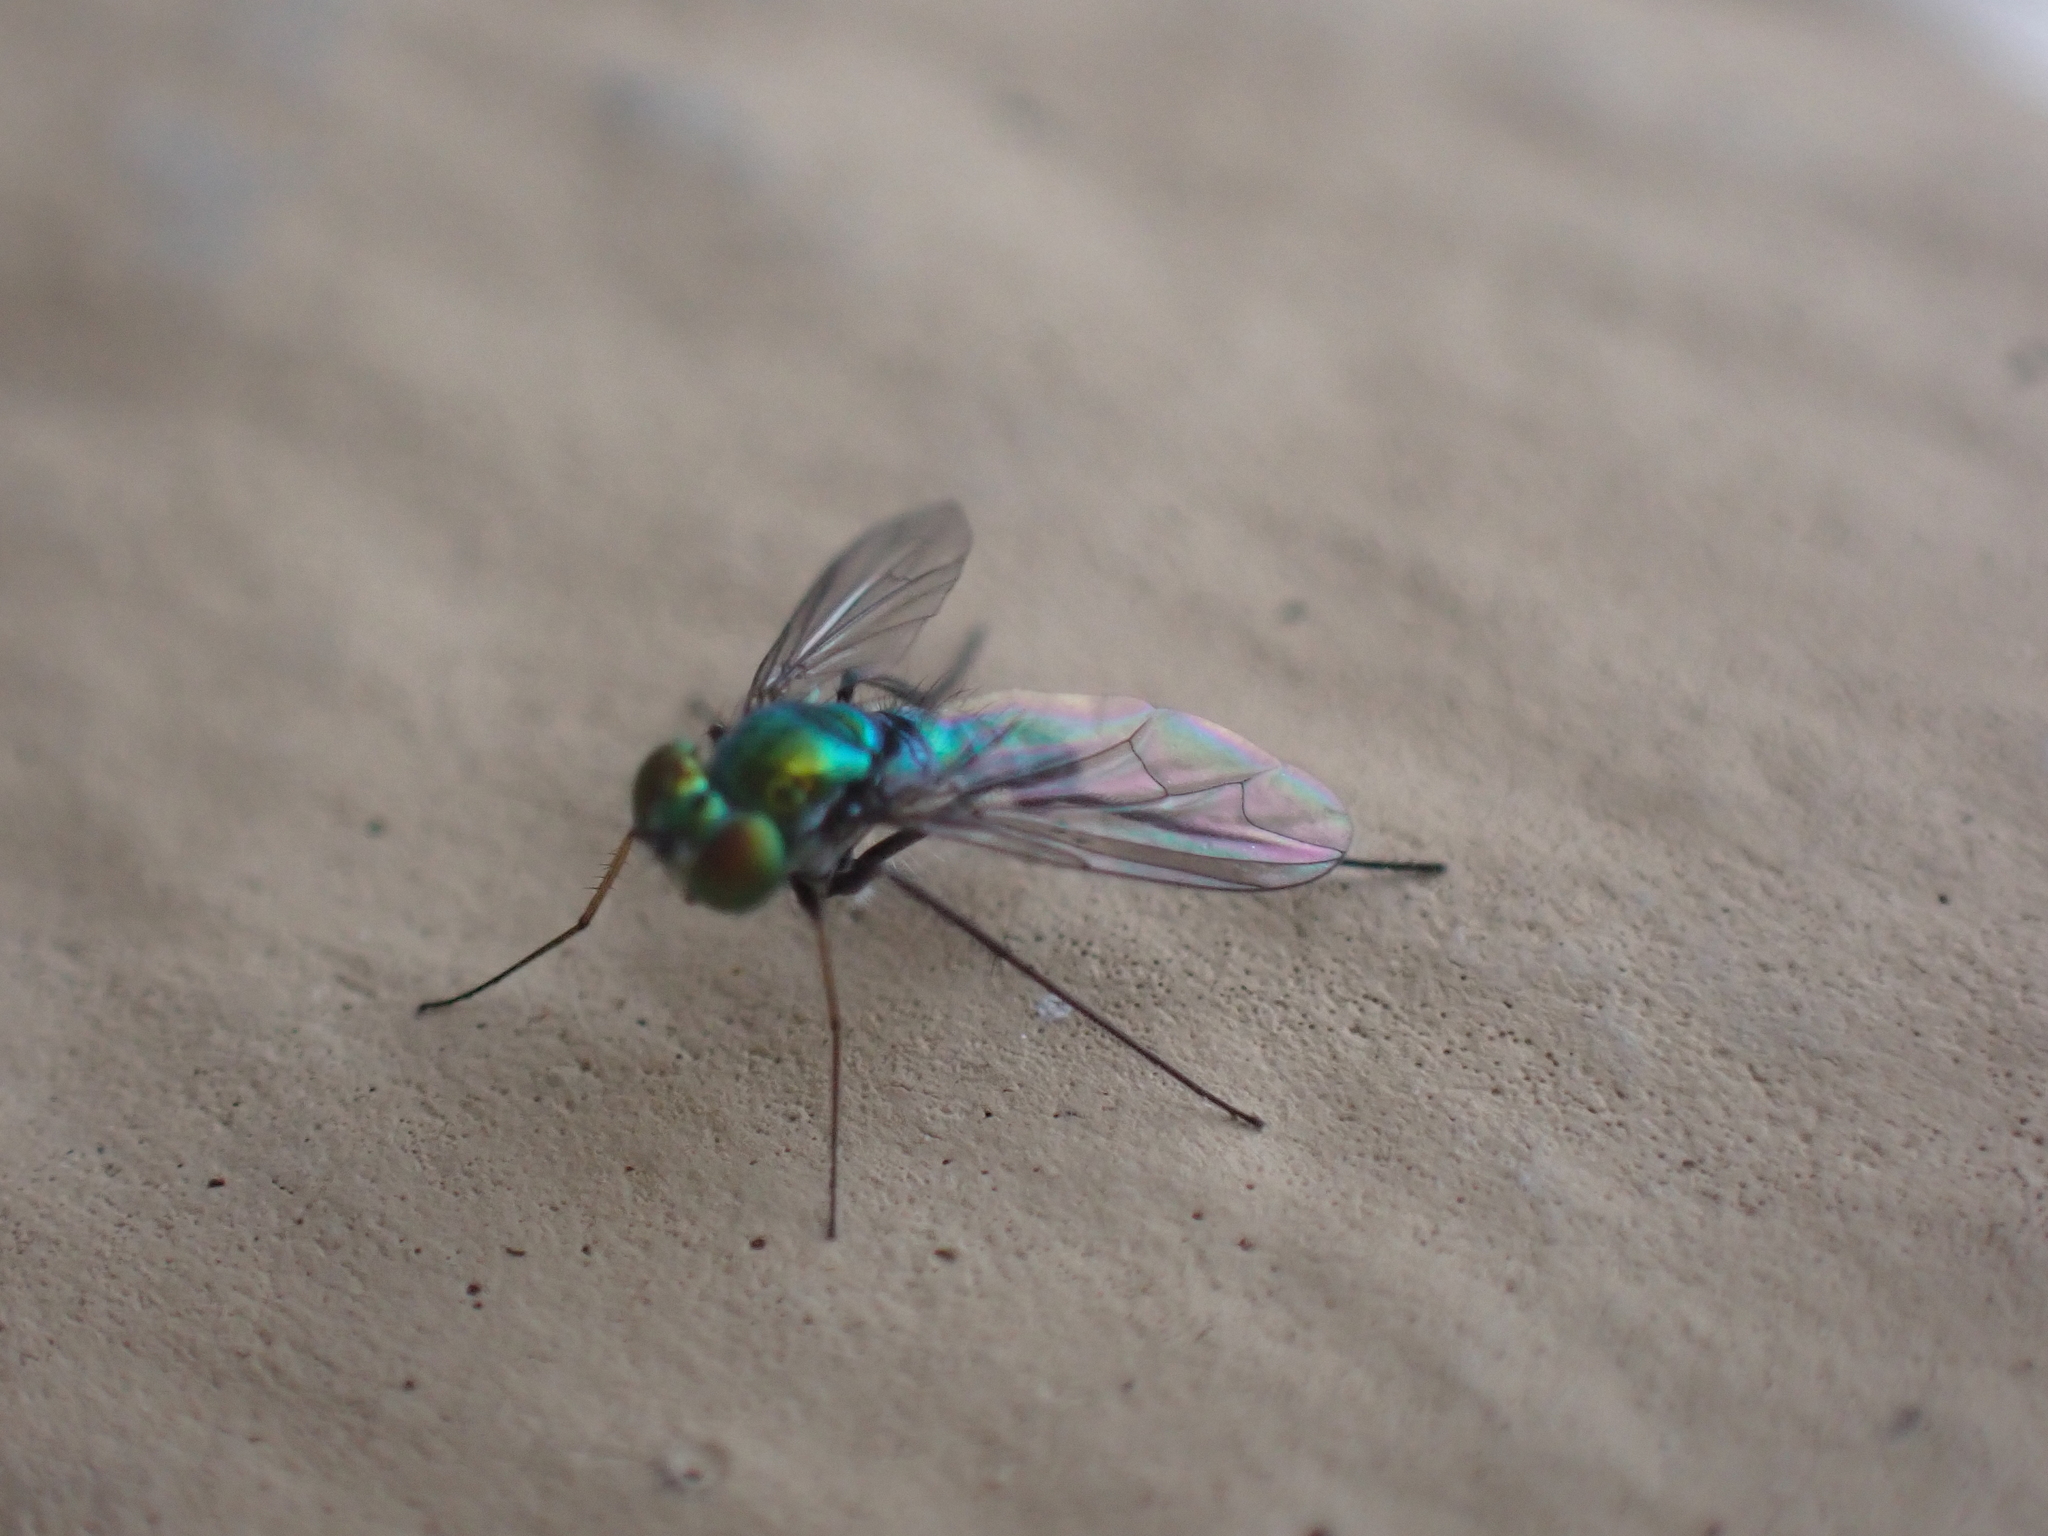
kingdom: Animalia
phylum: Arthropoda
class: Insecta
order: Diptera
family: Dolichopodidae
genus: Condylostylus
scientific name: Condylostylus longicornis
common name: Long-legged fly
